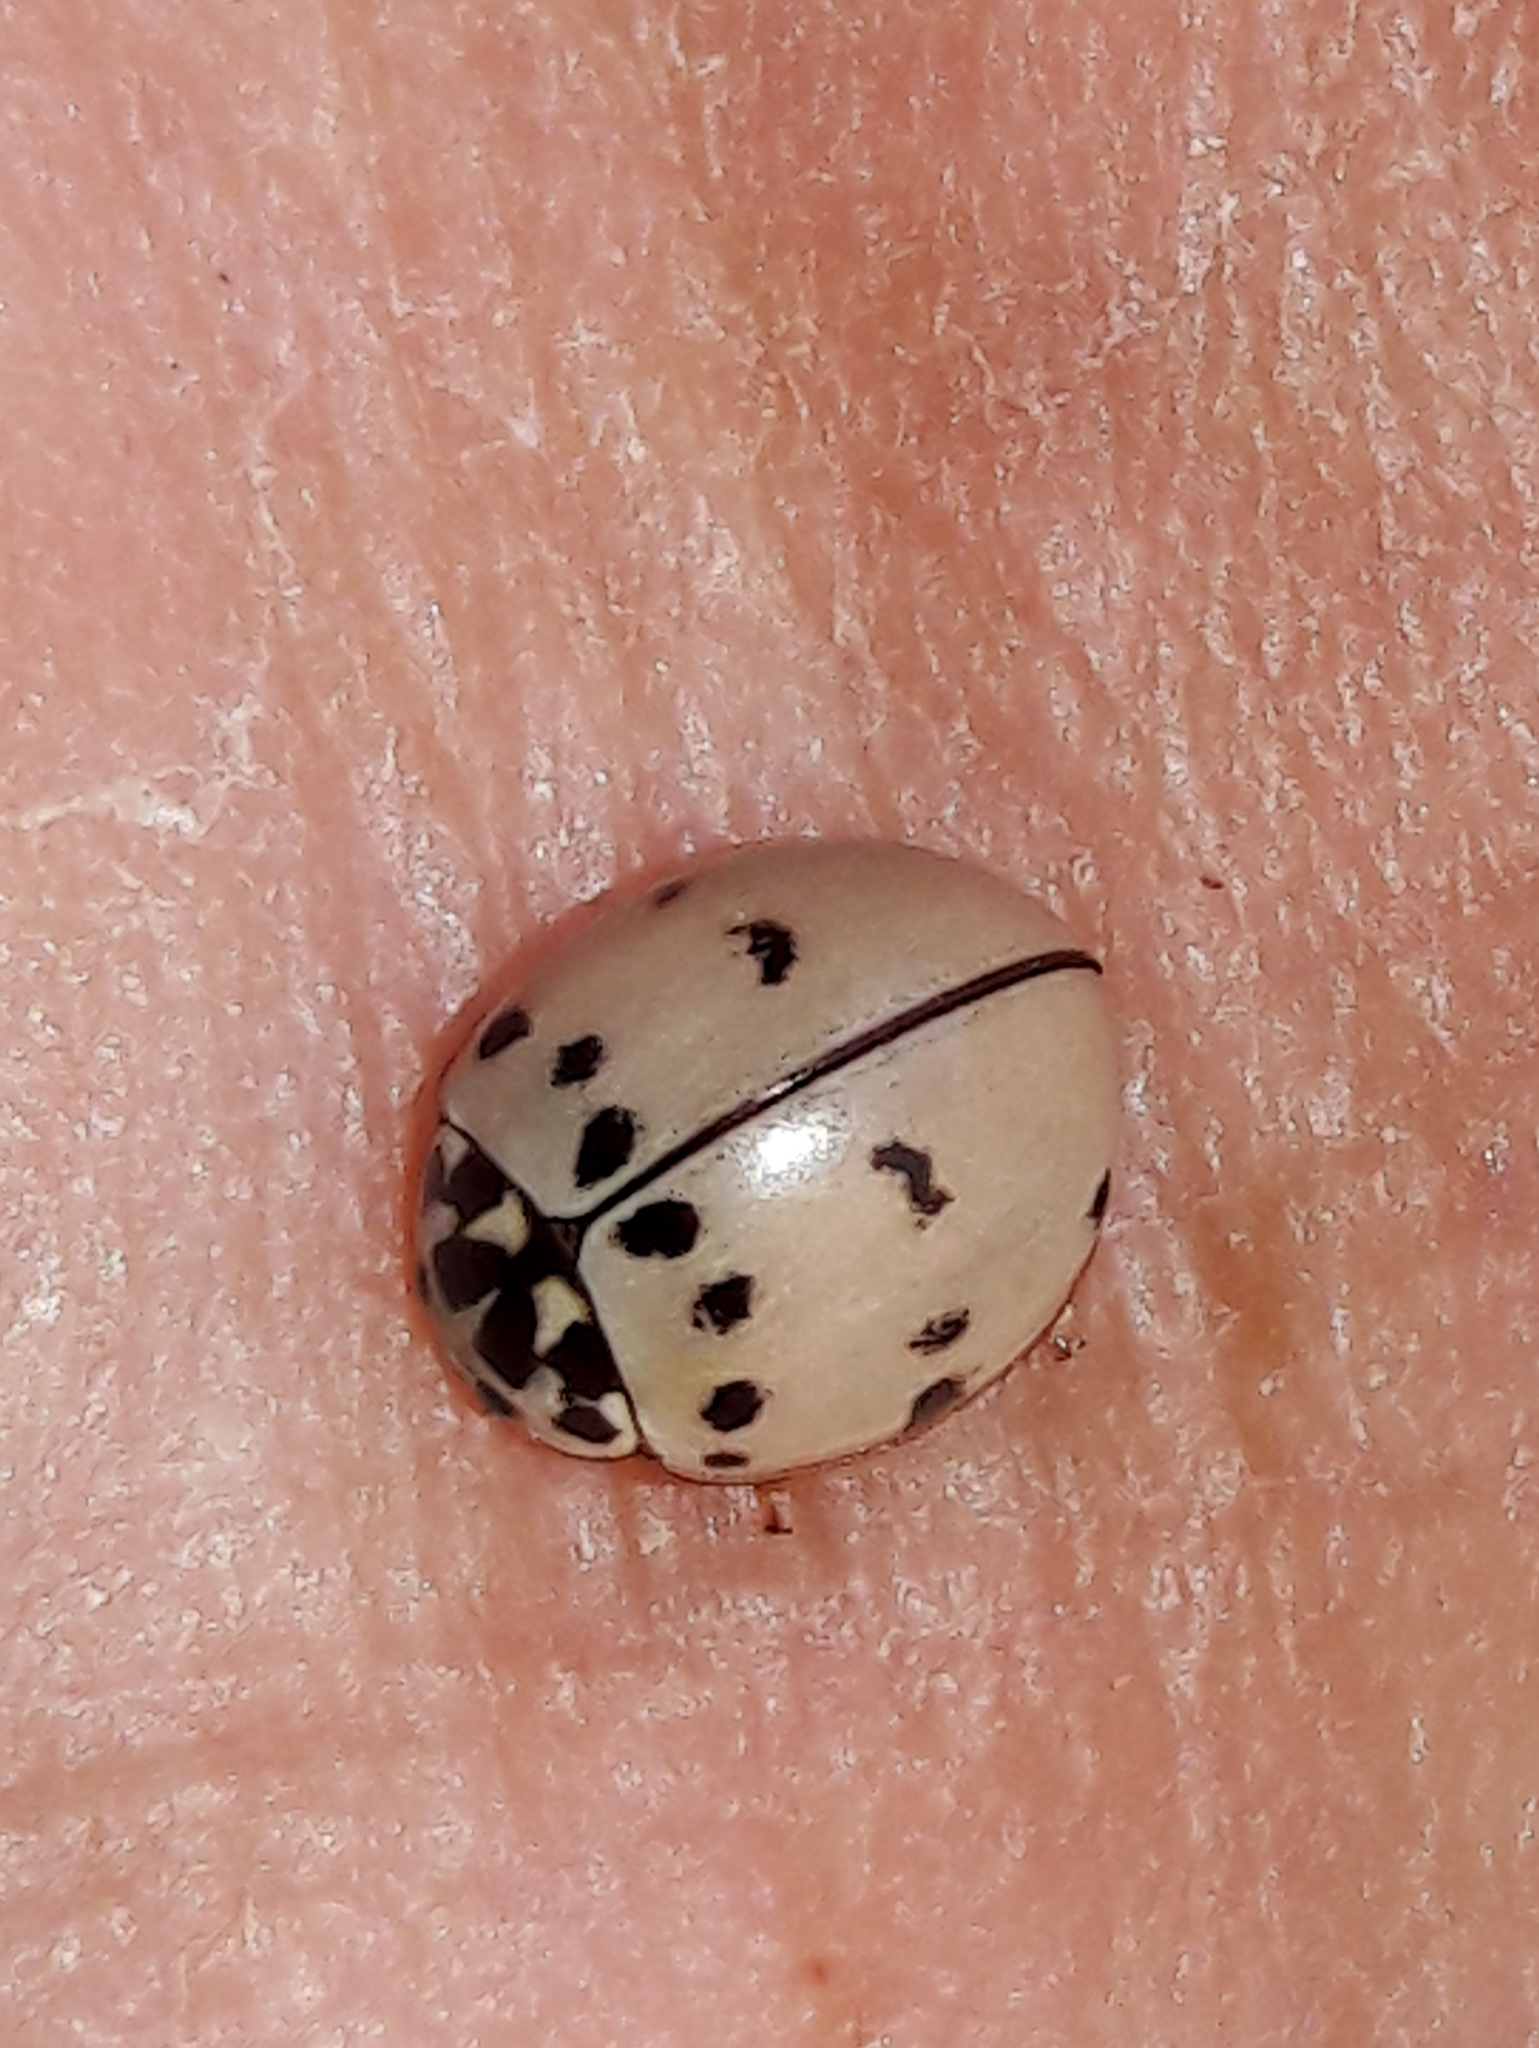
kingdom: Animalia
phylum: Arthropoda
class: Insecta
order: Coleoptera
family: Coccinellidae
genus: Olla
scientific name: Olla v-nigrum
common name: Ashy gray lady beetle
